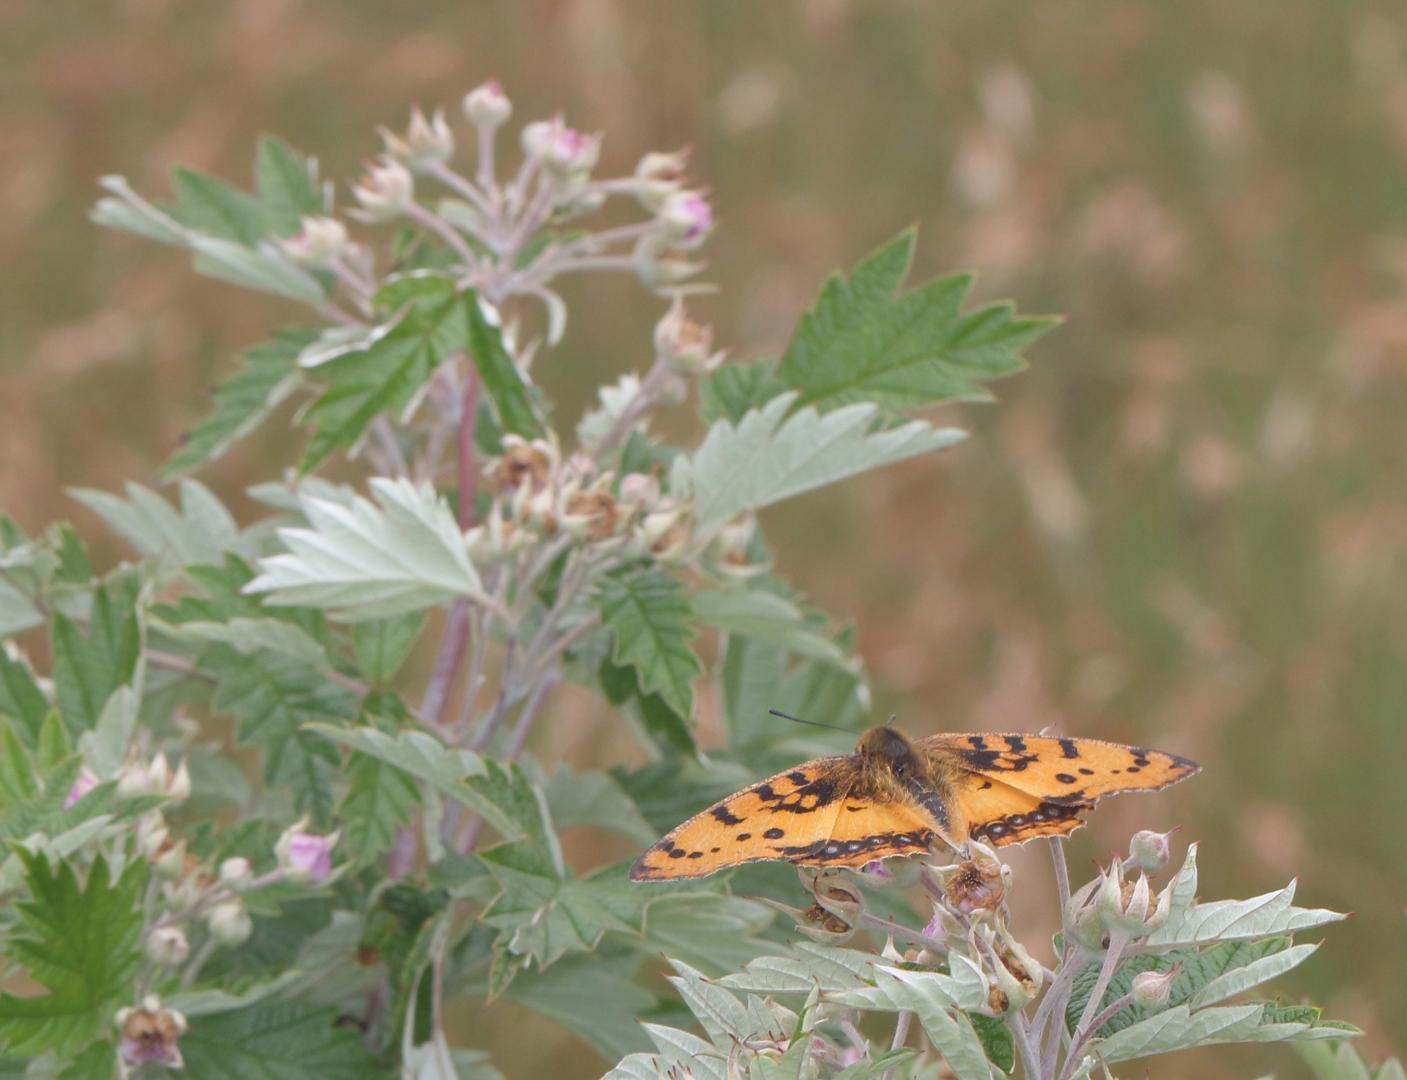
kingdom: Animalia
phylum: Arthropoda
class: Insecta
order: Lepidoptera
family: Nymphalidae
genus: Catacroptera
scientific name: Catacroptera cloanthe
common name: Pirate
